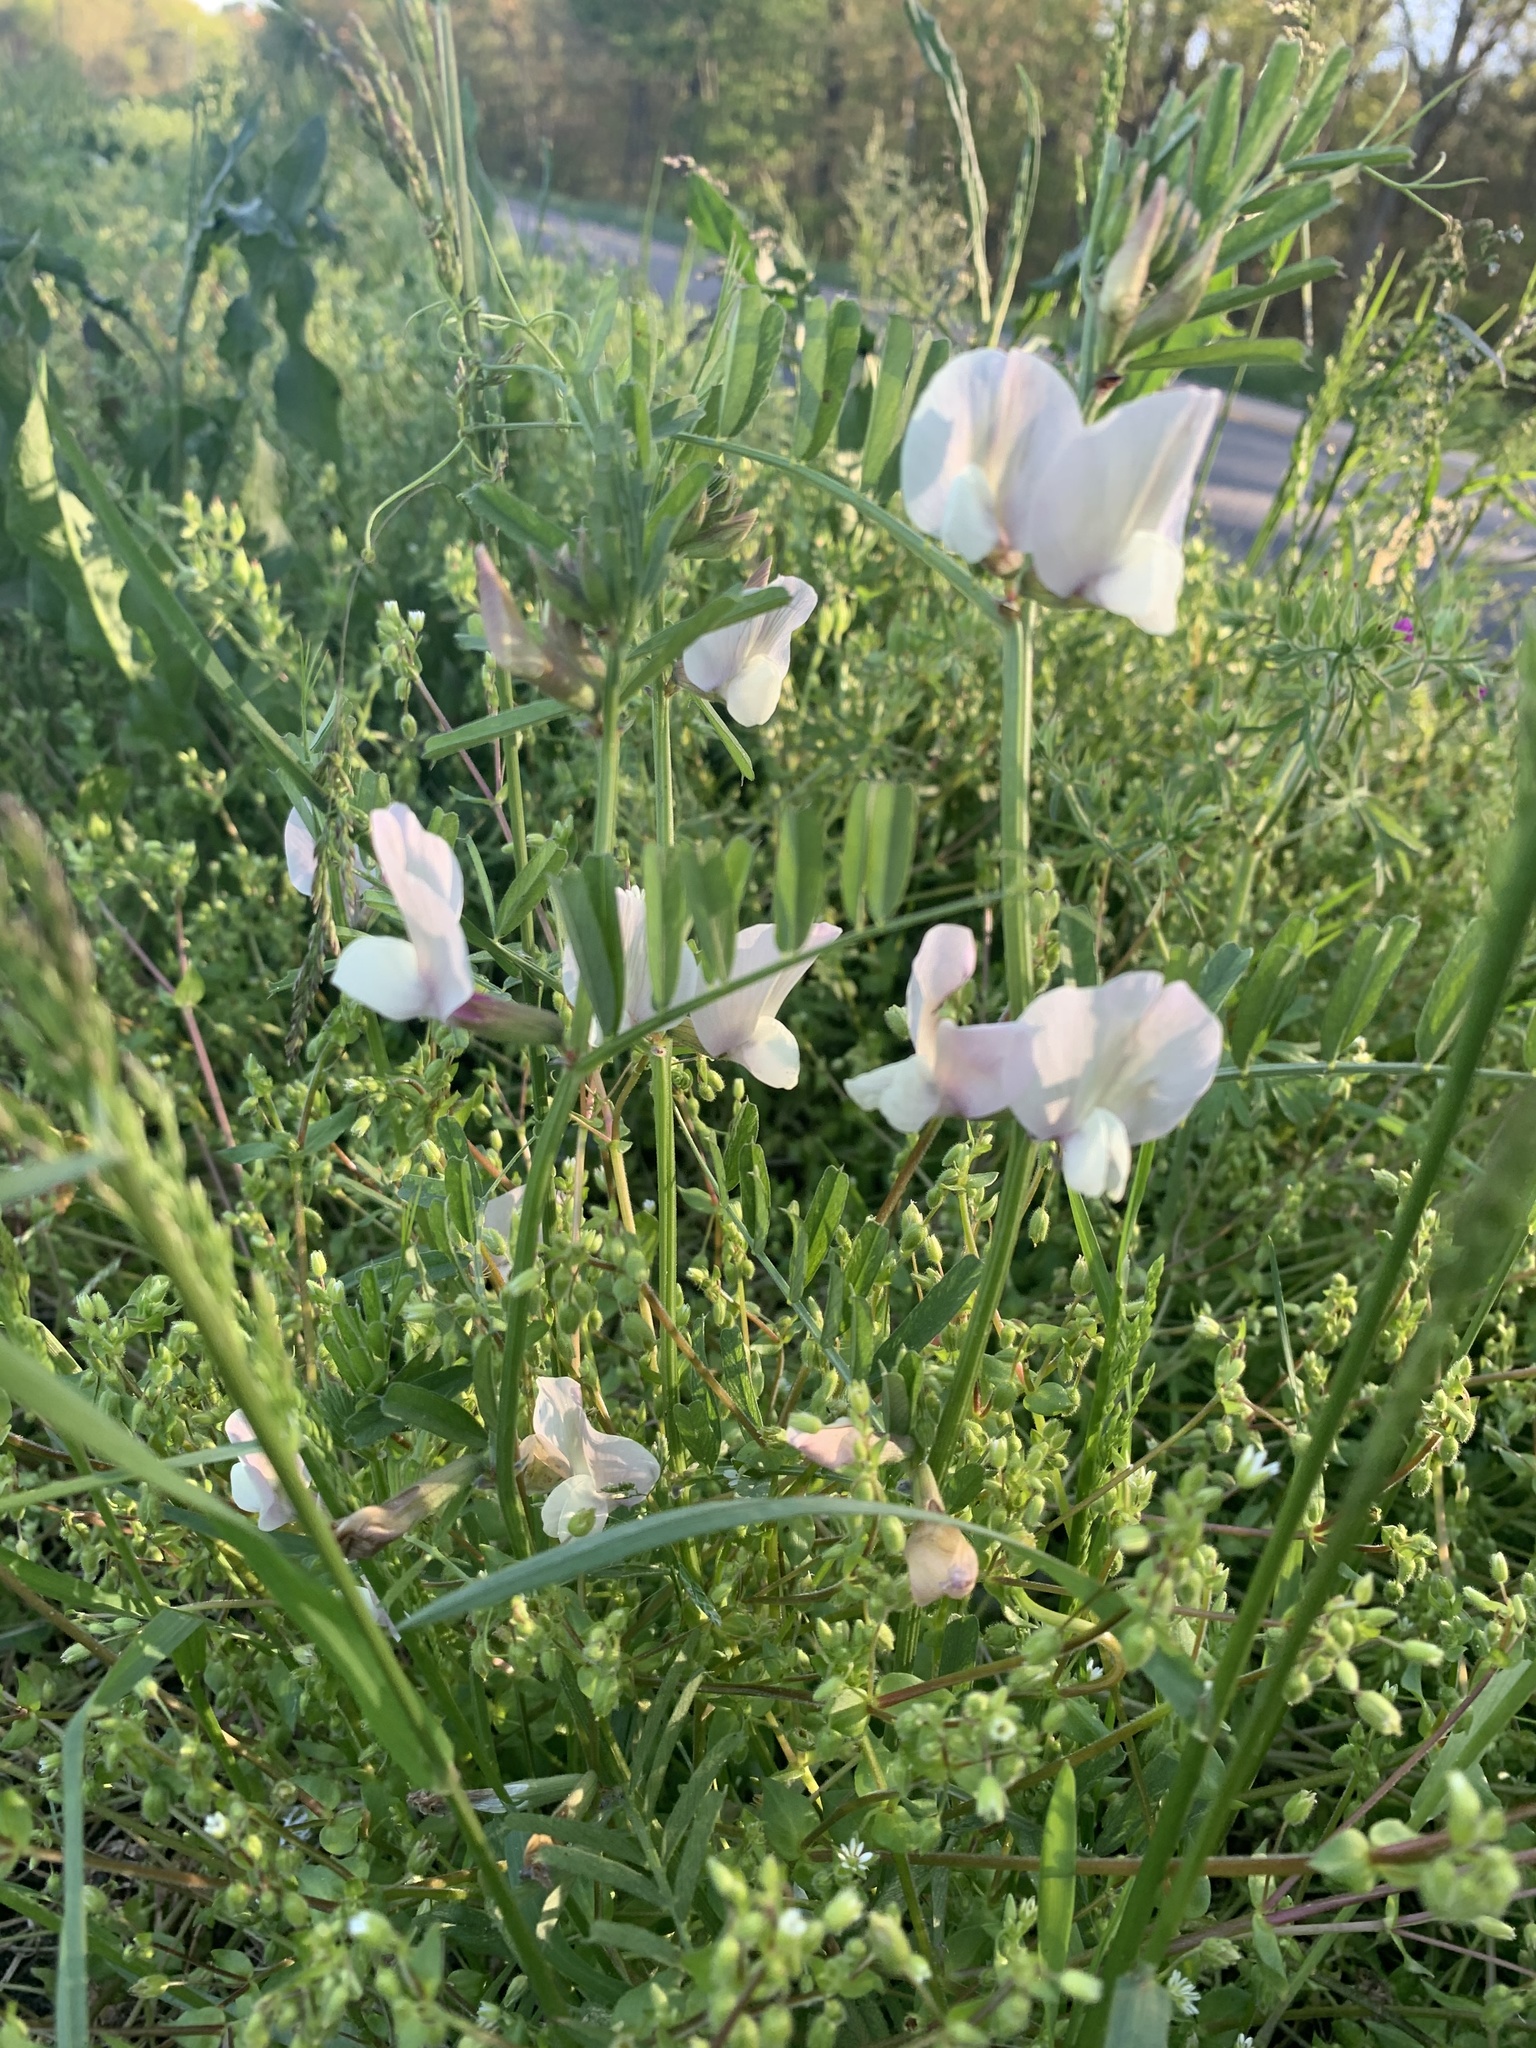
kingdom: Plantae
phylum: Tracheophyta
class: Magnoliopsida
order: Fabales
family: Fabaceae
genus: Vicia
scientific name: Vicia grandiflora
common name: Large yellow vetch
